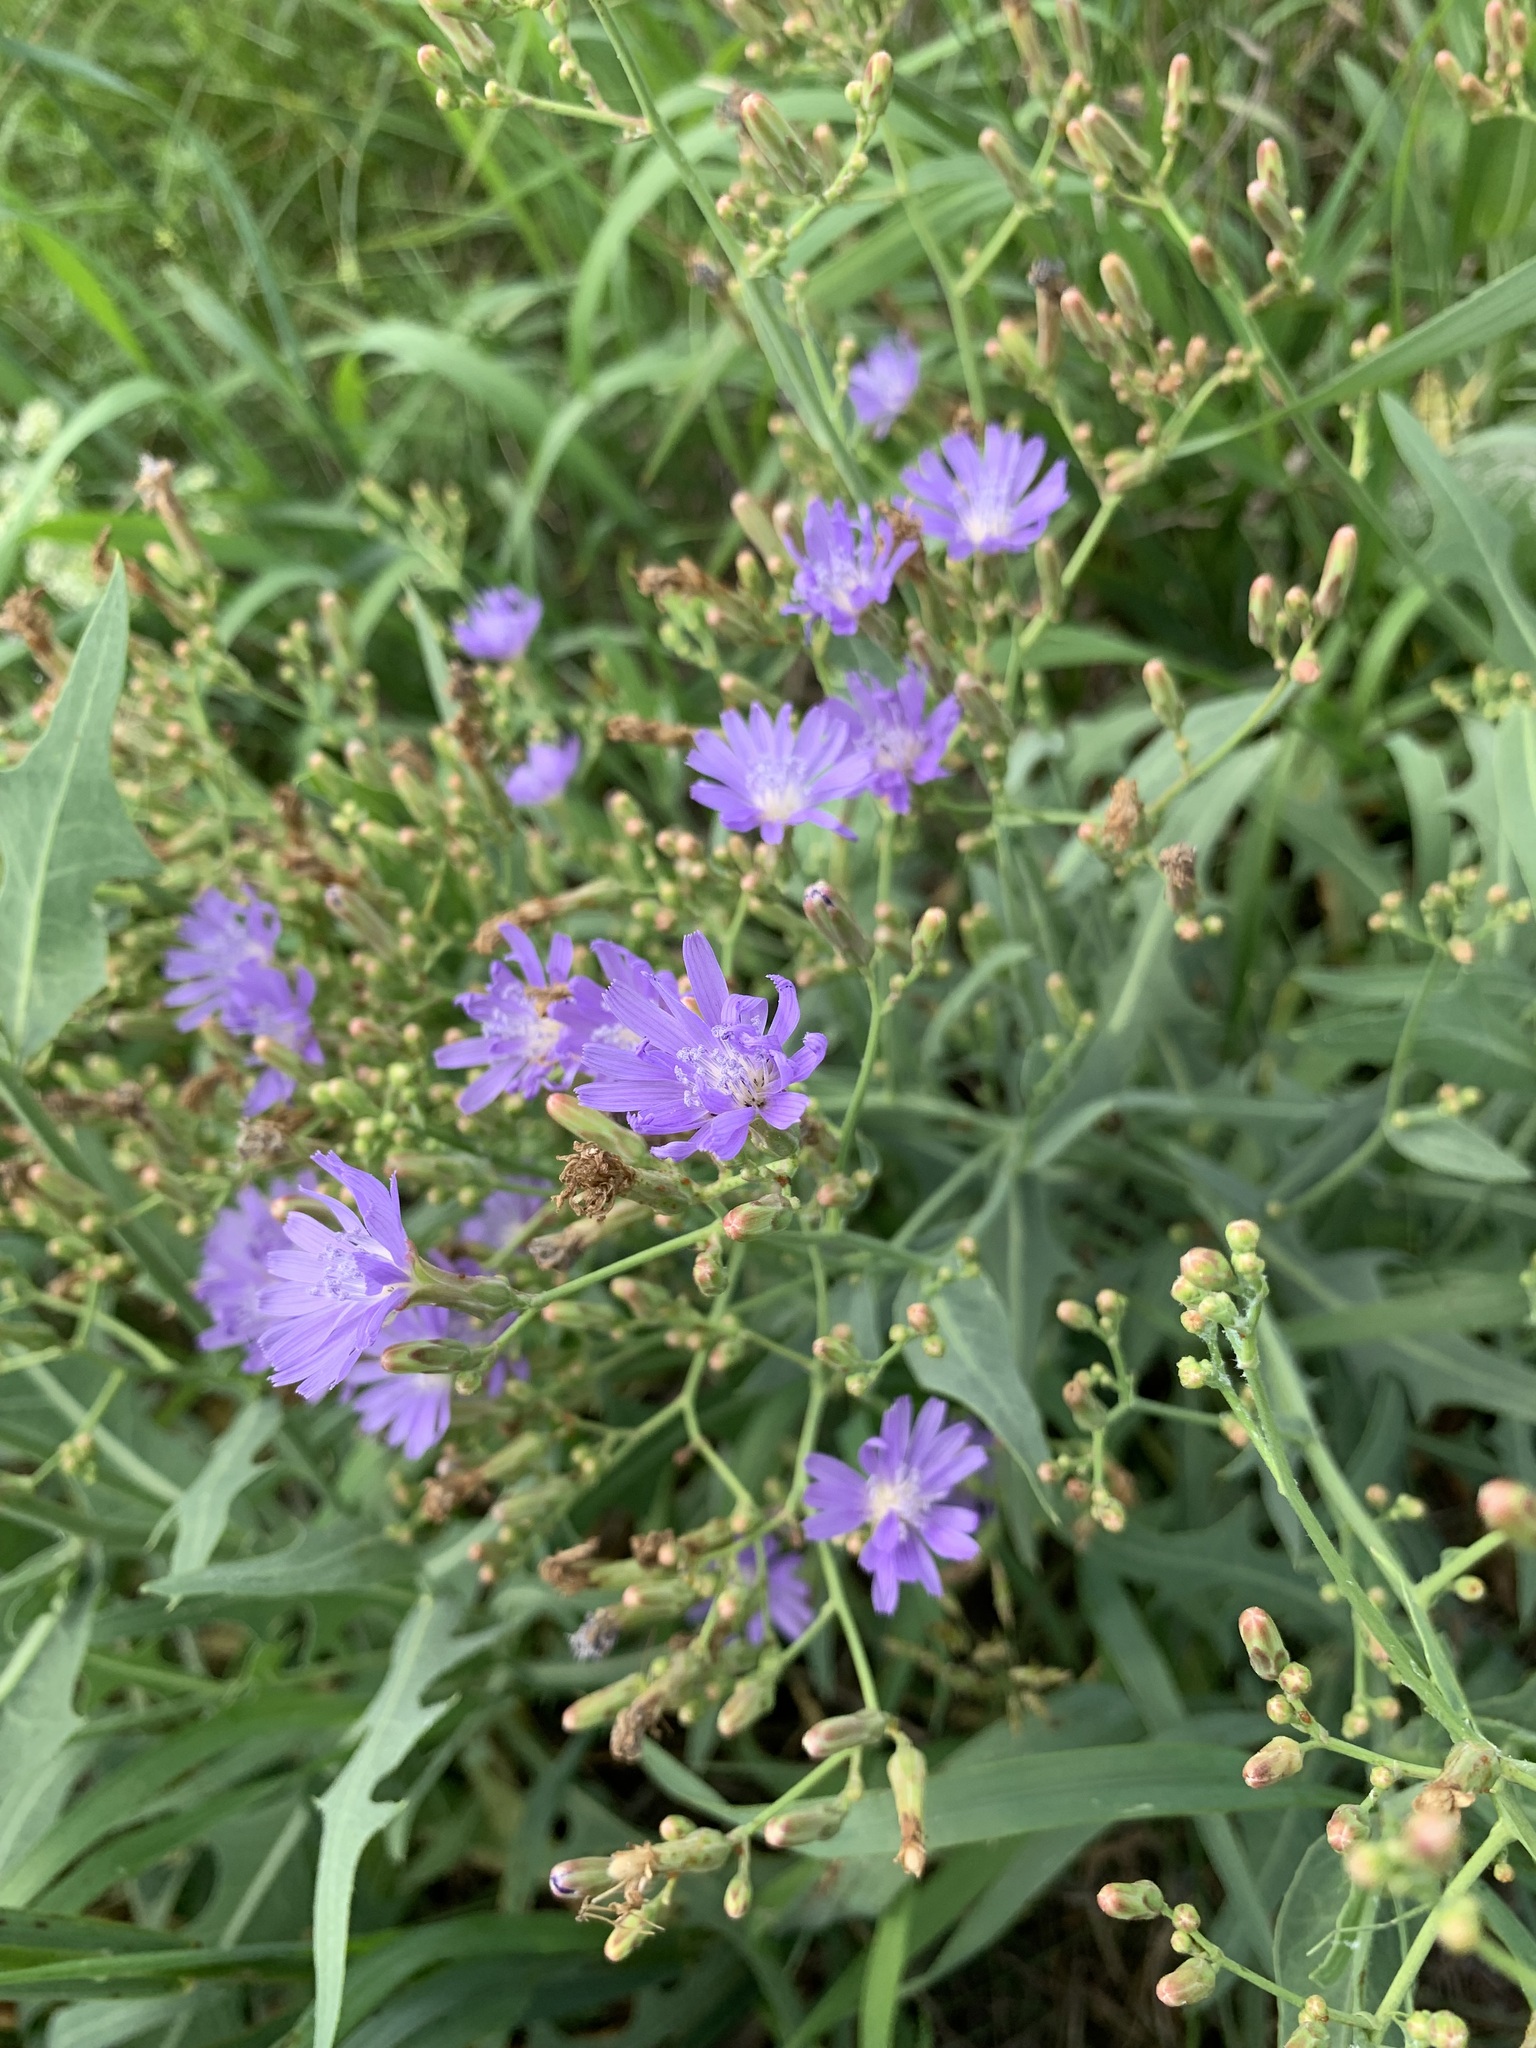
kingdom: Plantae
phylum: Tracheophyta
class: Magnoliopsida
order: Asterales
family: Asteraceae
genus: Lactuca
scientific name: Lactuca tatarica
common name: Blue lettuce
